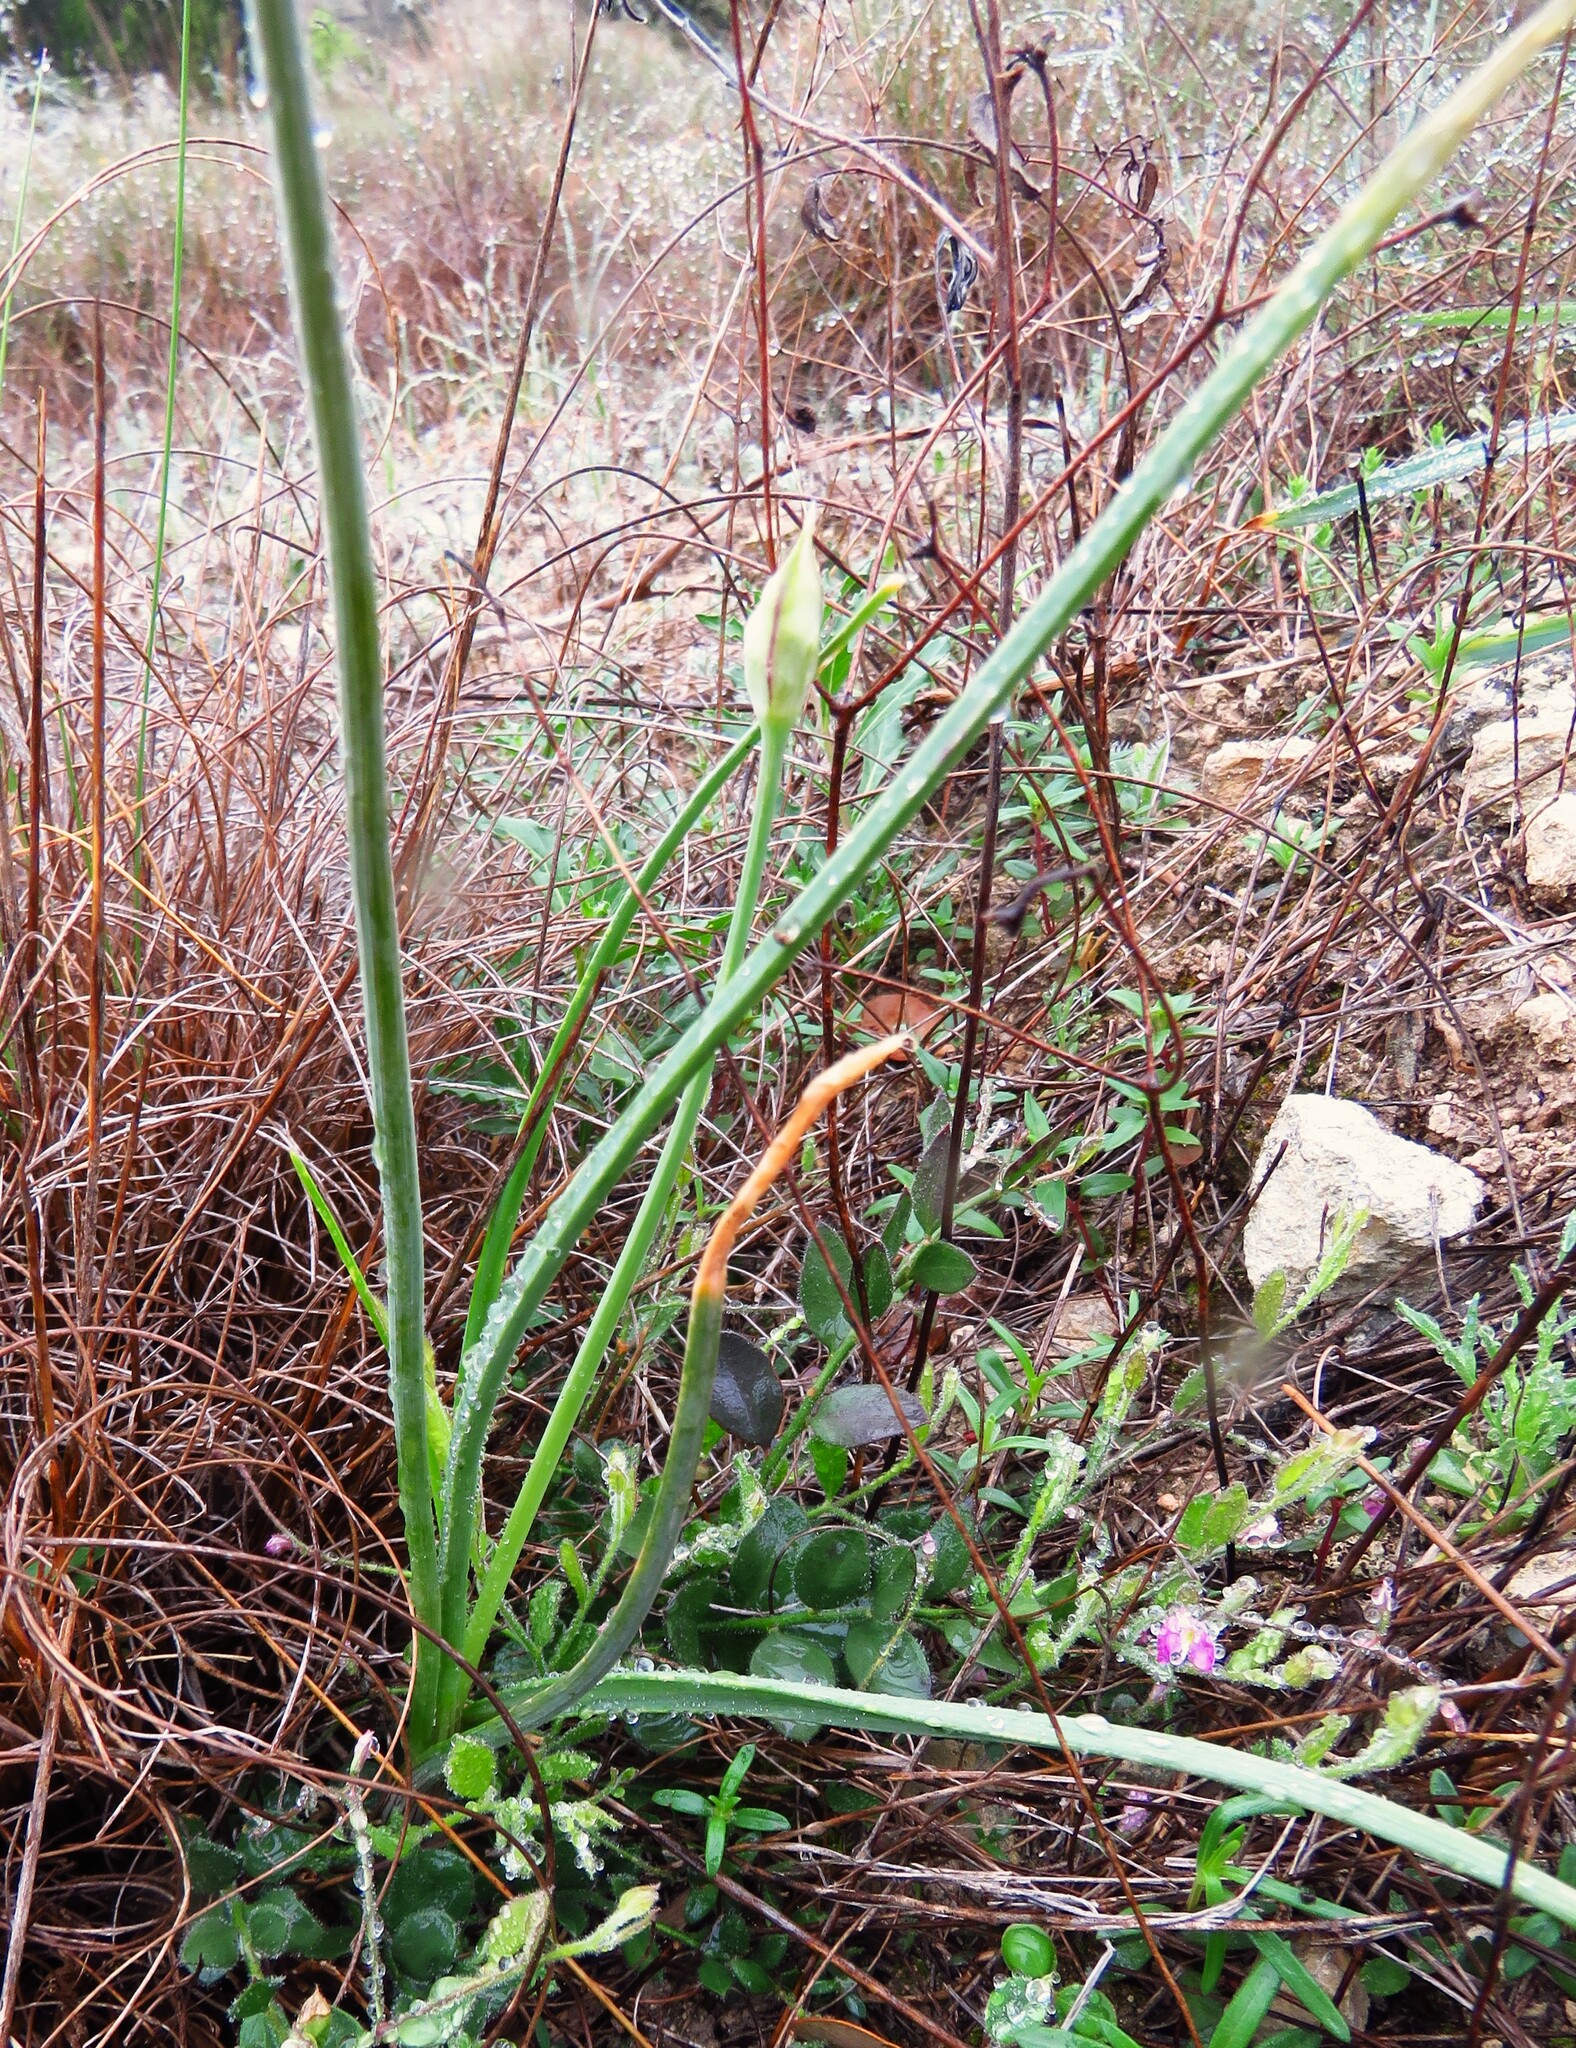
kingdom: Plantae
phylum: Tracheophyta
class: Liliopsida
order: Asparagales
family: Amaryllidaceae
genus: Allium
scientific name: Allium drummondii
